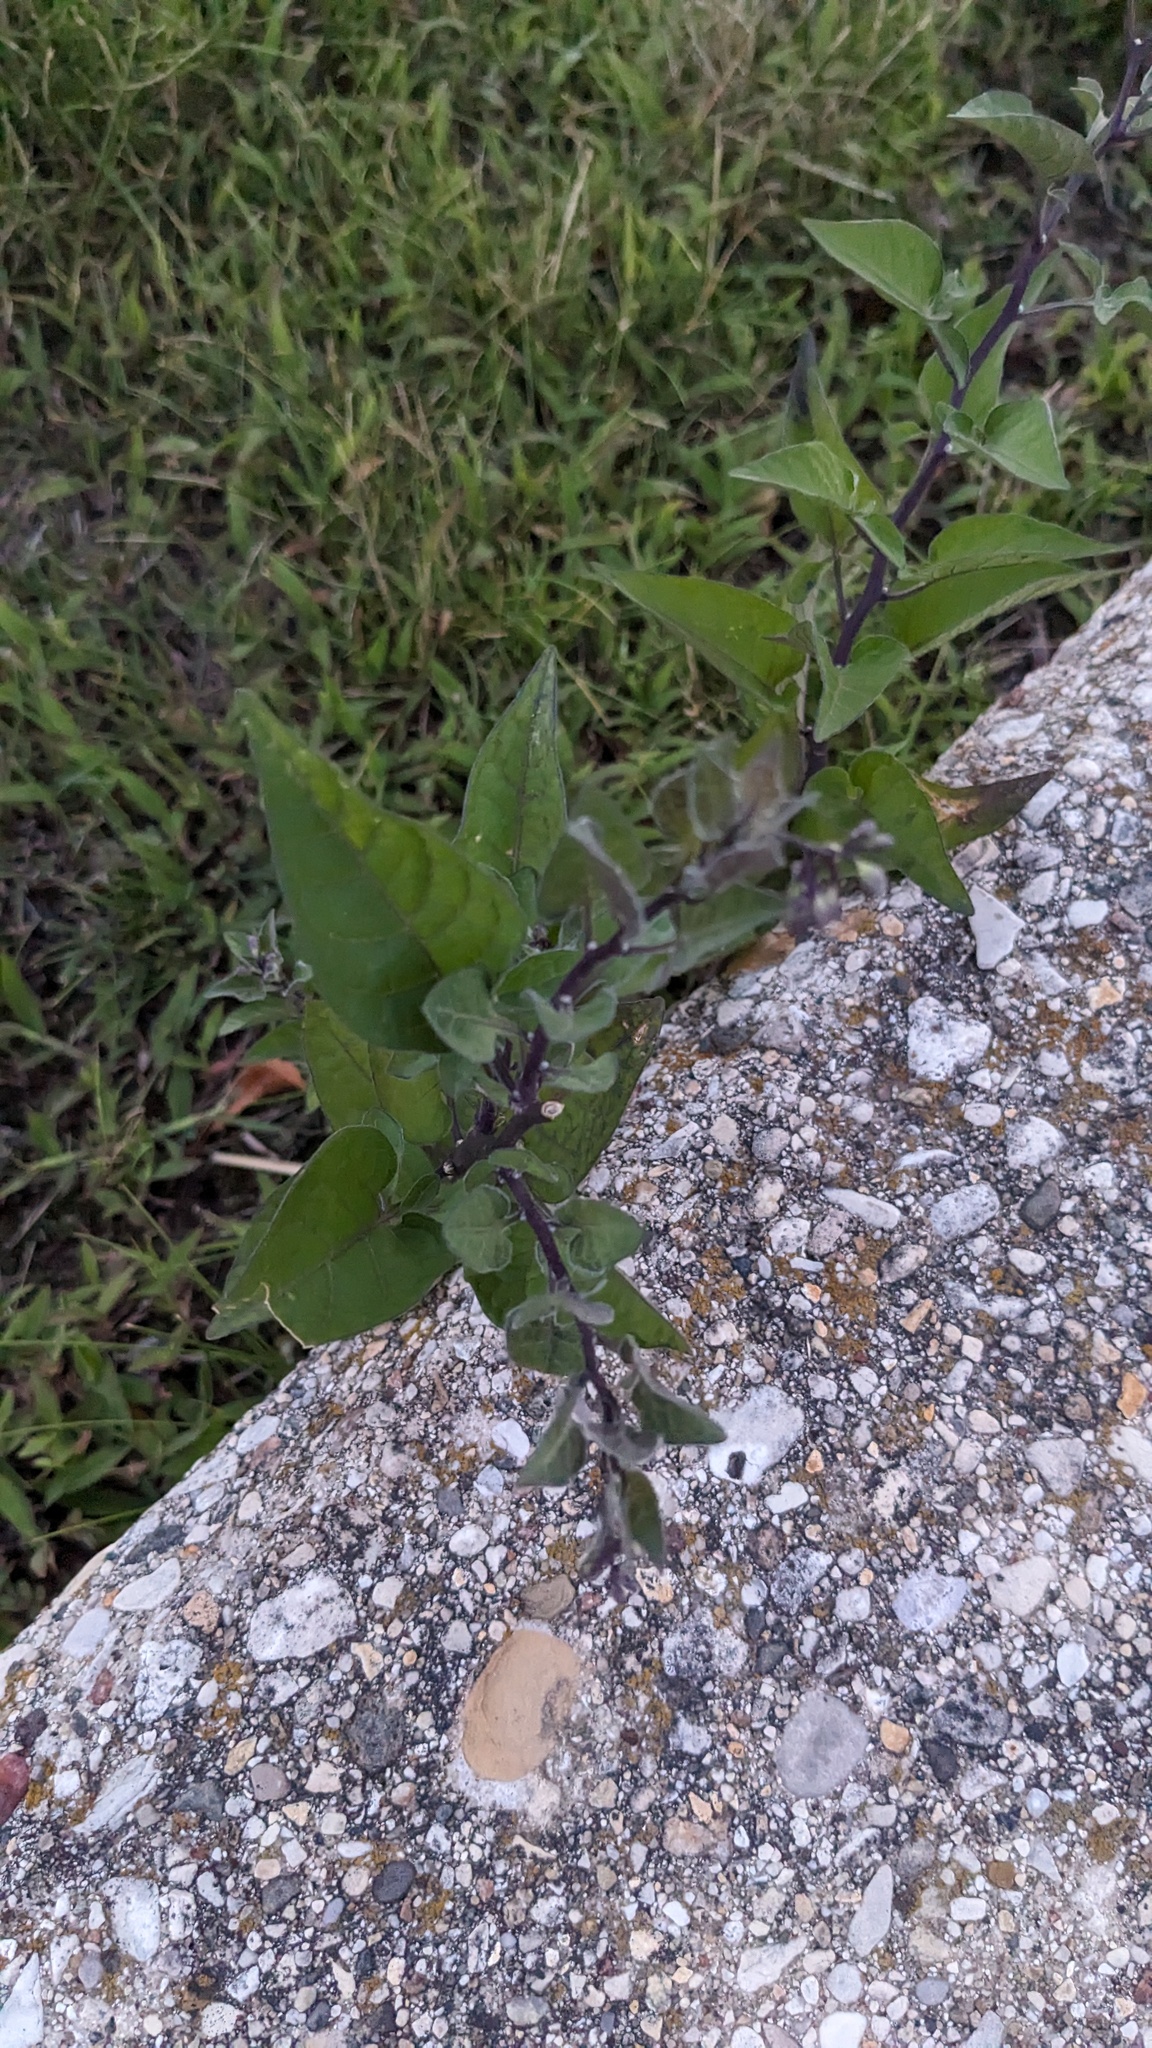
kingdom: Plantae
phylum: Tracheophyta
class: Magnoliopsida
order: Solanales
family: Solanaceae
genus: Solanum
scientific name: Solanum dulcamara
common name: Climbing nightshade
